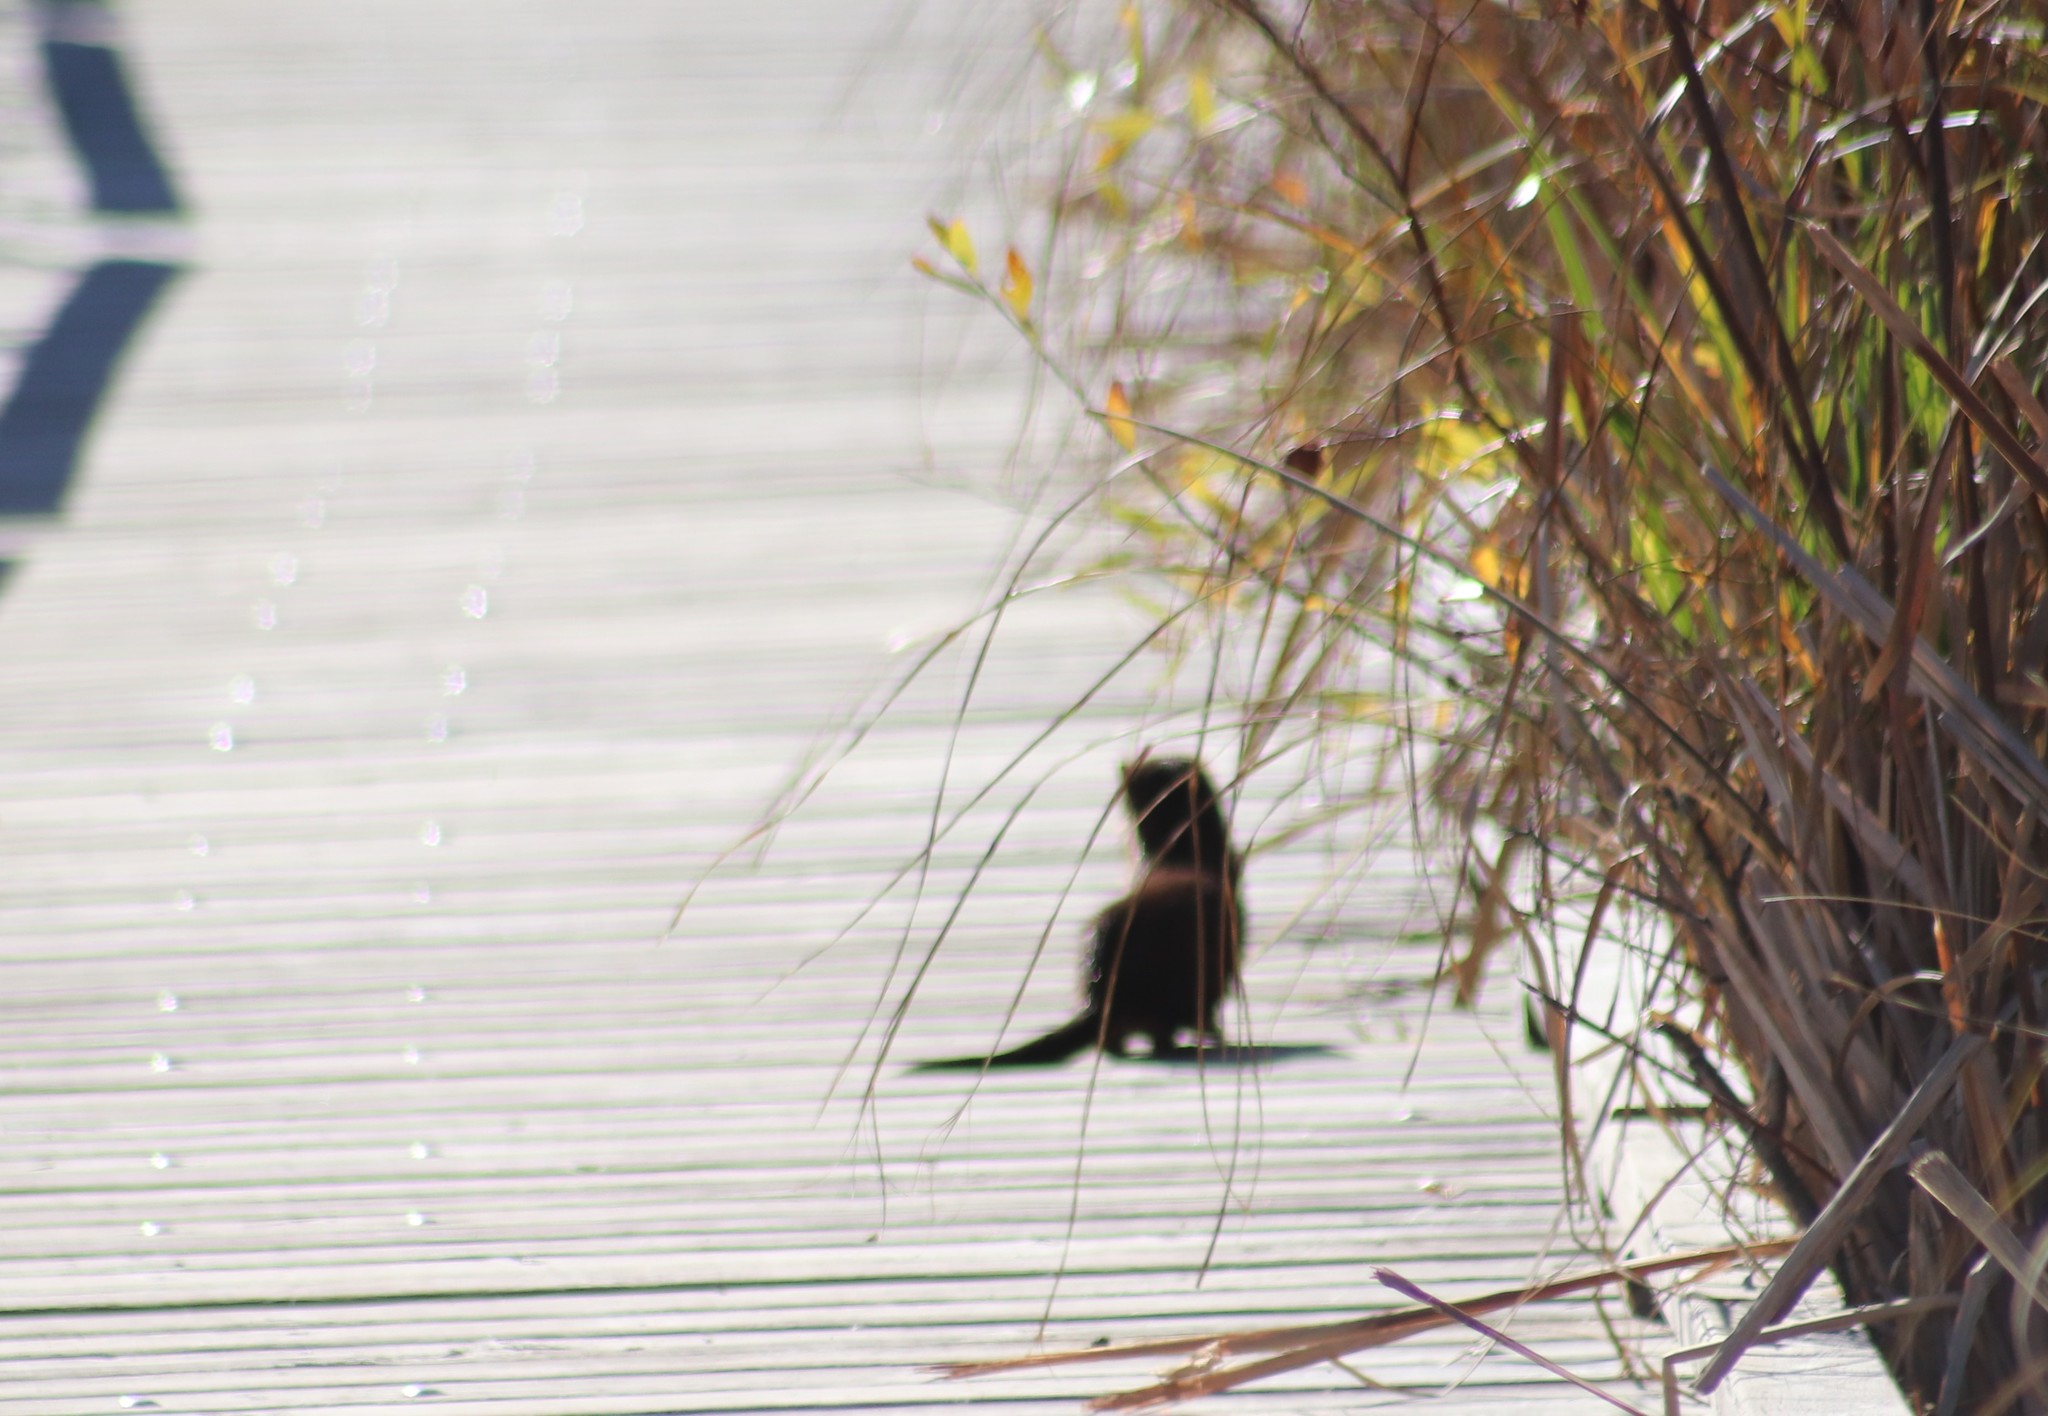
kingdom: Animalia
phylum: Chordata
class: Mammalia
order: Carnivora
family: Mustelidae
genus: Mustela
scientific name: Mustela
